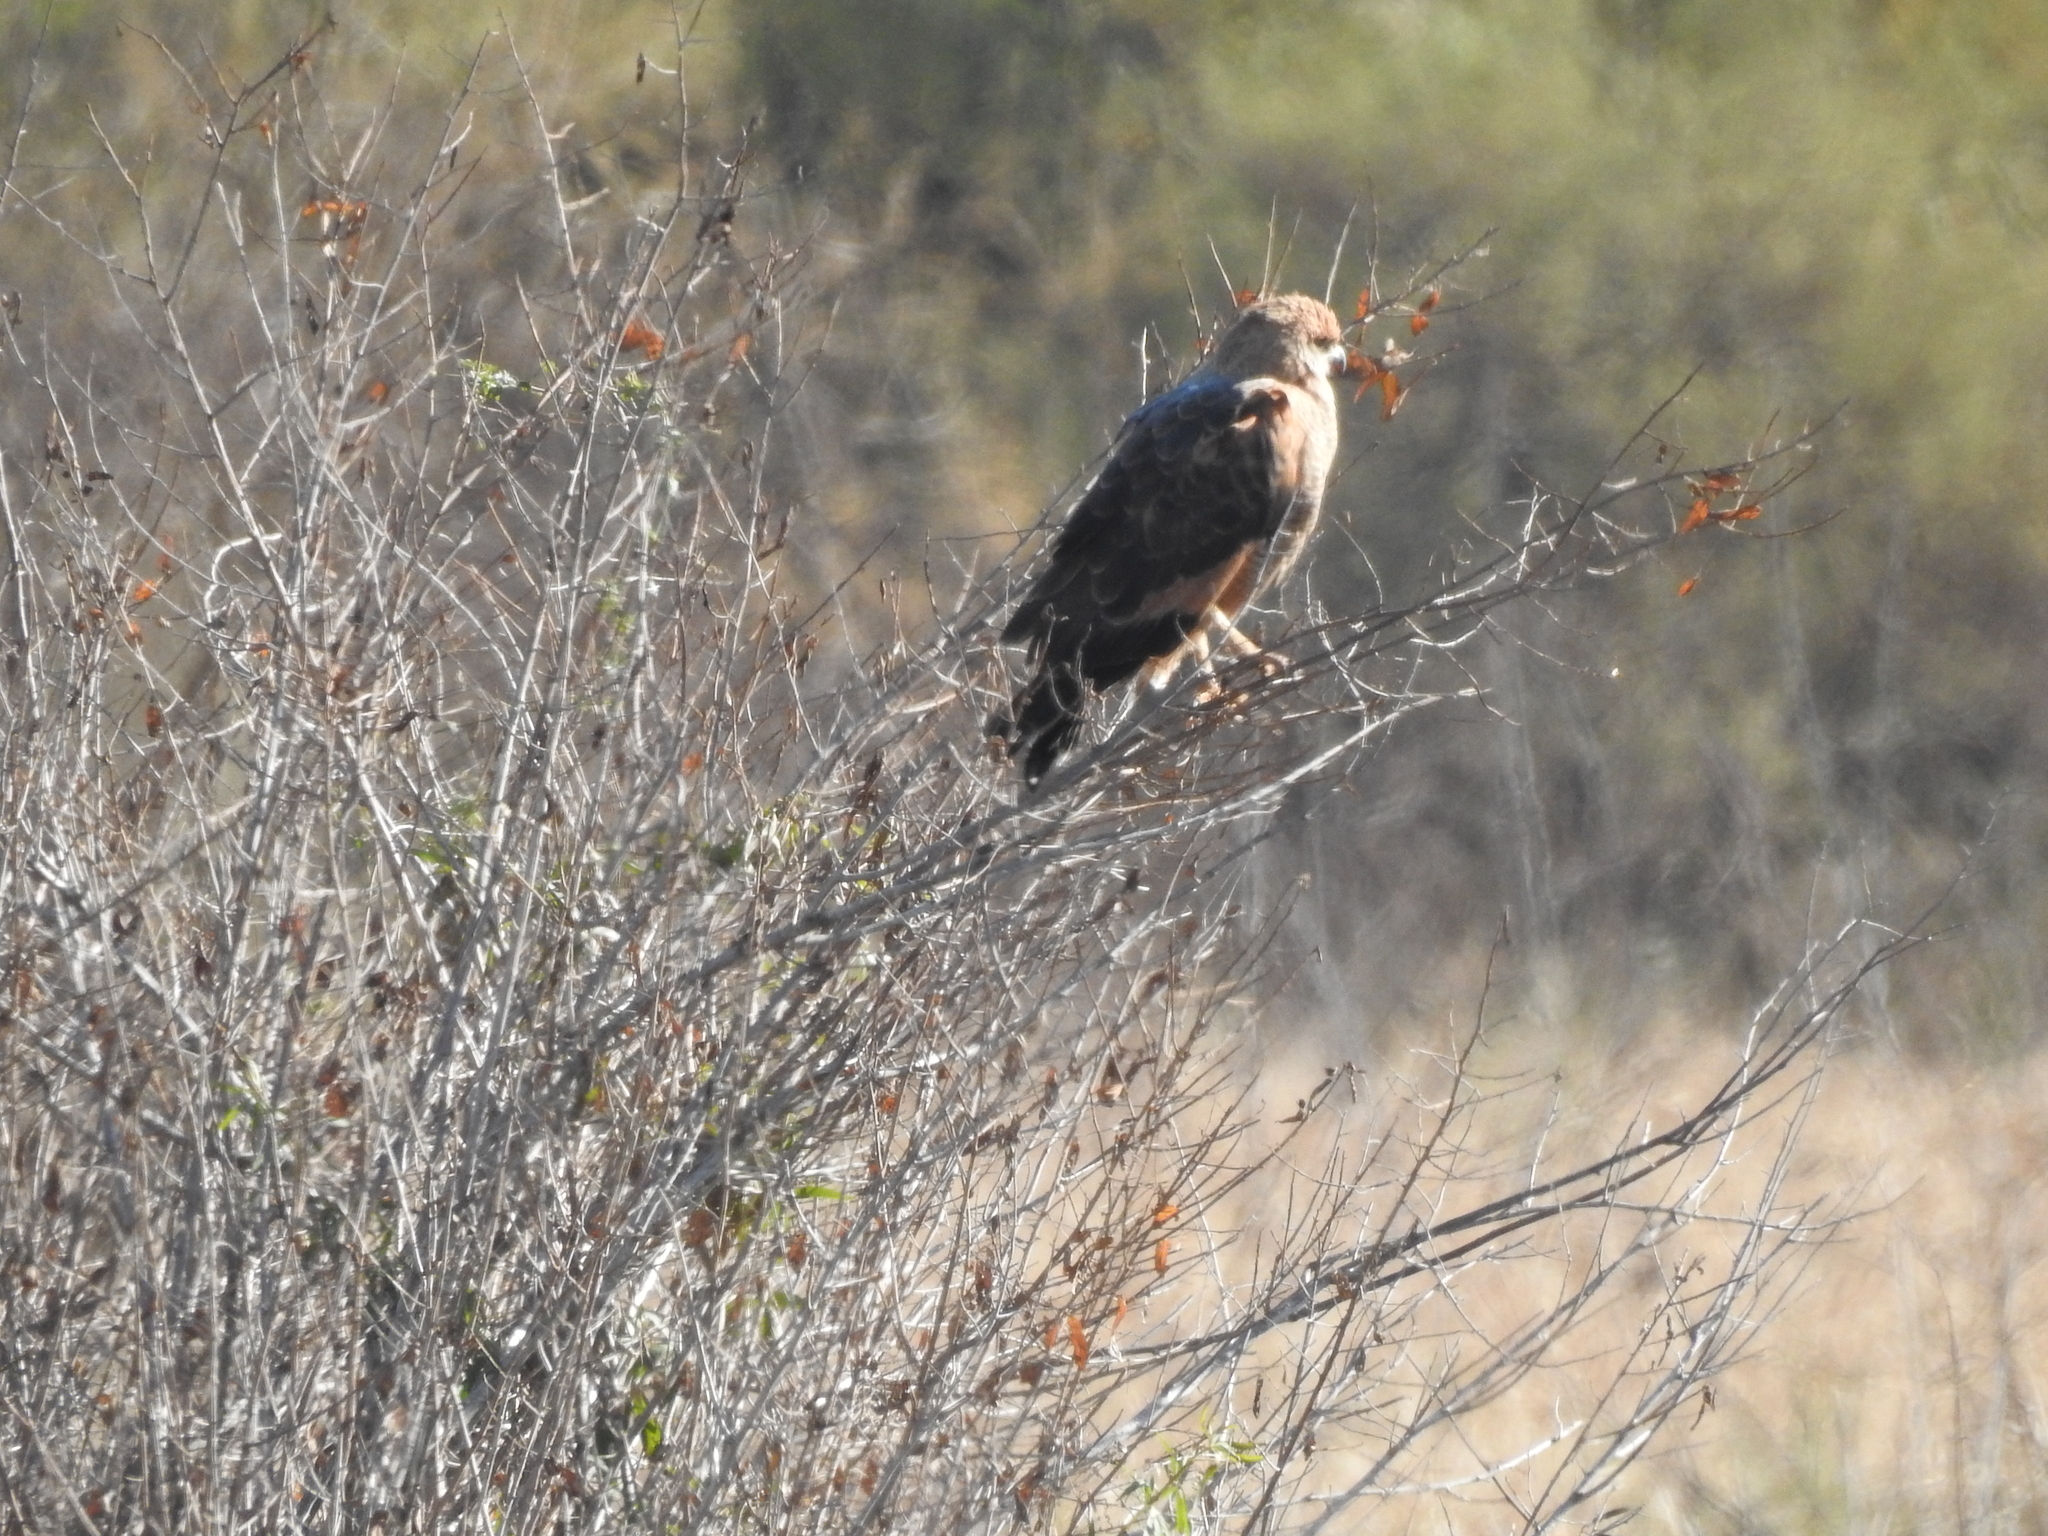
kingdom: Animalia
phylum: Chordata
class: Aves
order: Accipitriformes
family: Accipitridae
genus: Buteogallus
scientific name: Buteogallus meridionalis
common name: Savanna hawk
